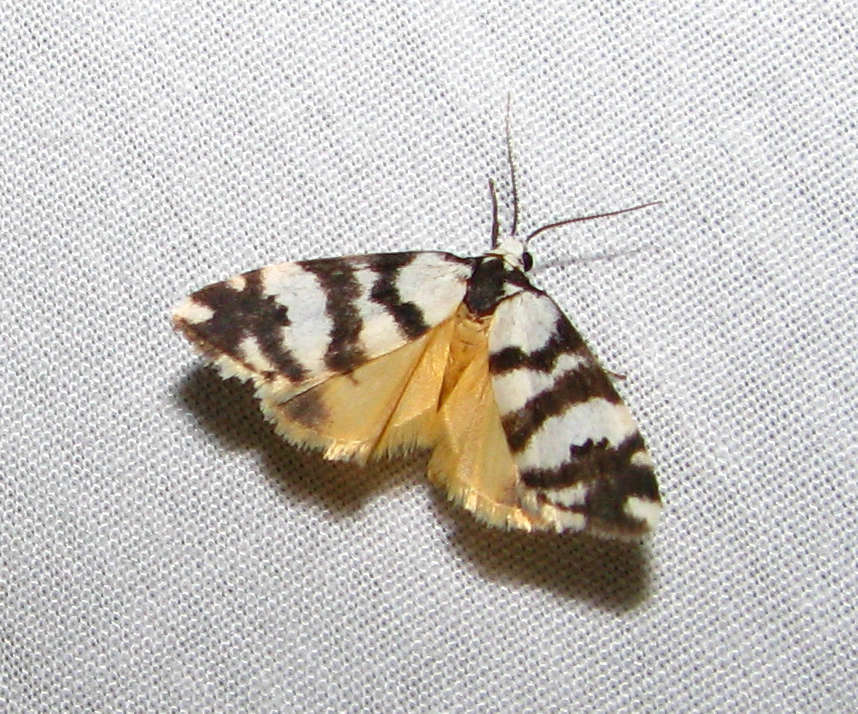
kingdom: Animalia
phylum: Arthropoda
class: Insecta
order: Lepidoptera
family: Erebidae
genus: Thallarcha
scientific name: Thallarcha trissomochla
